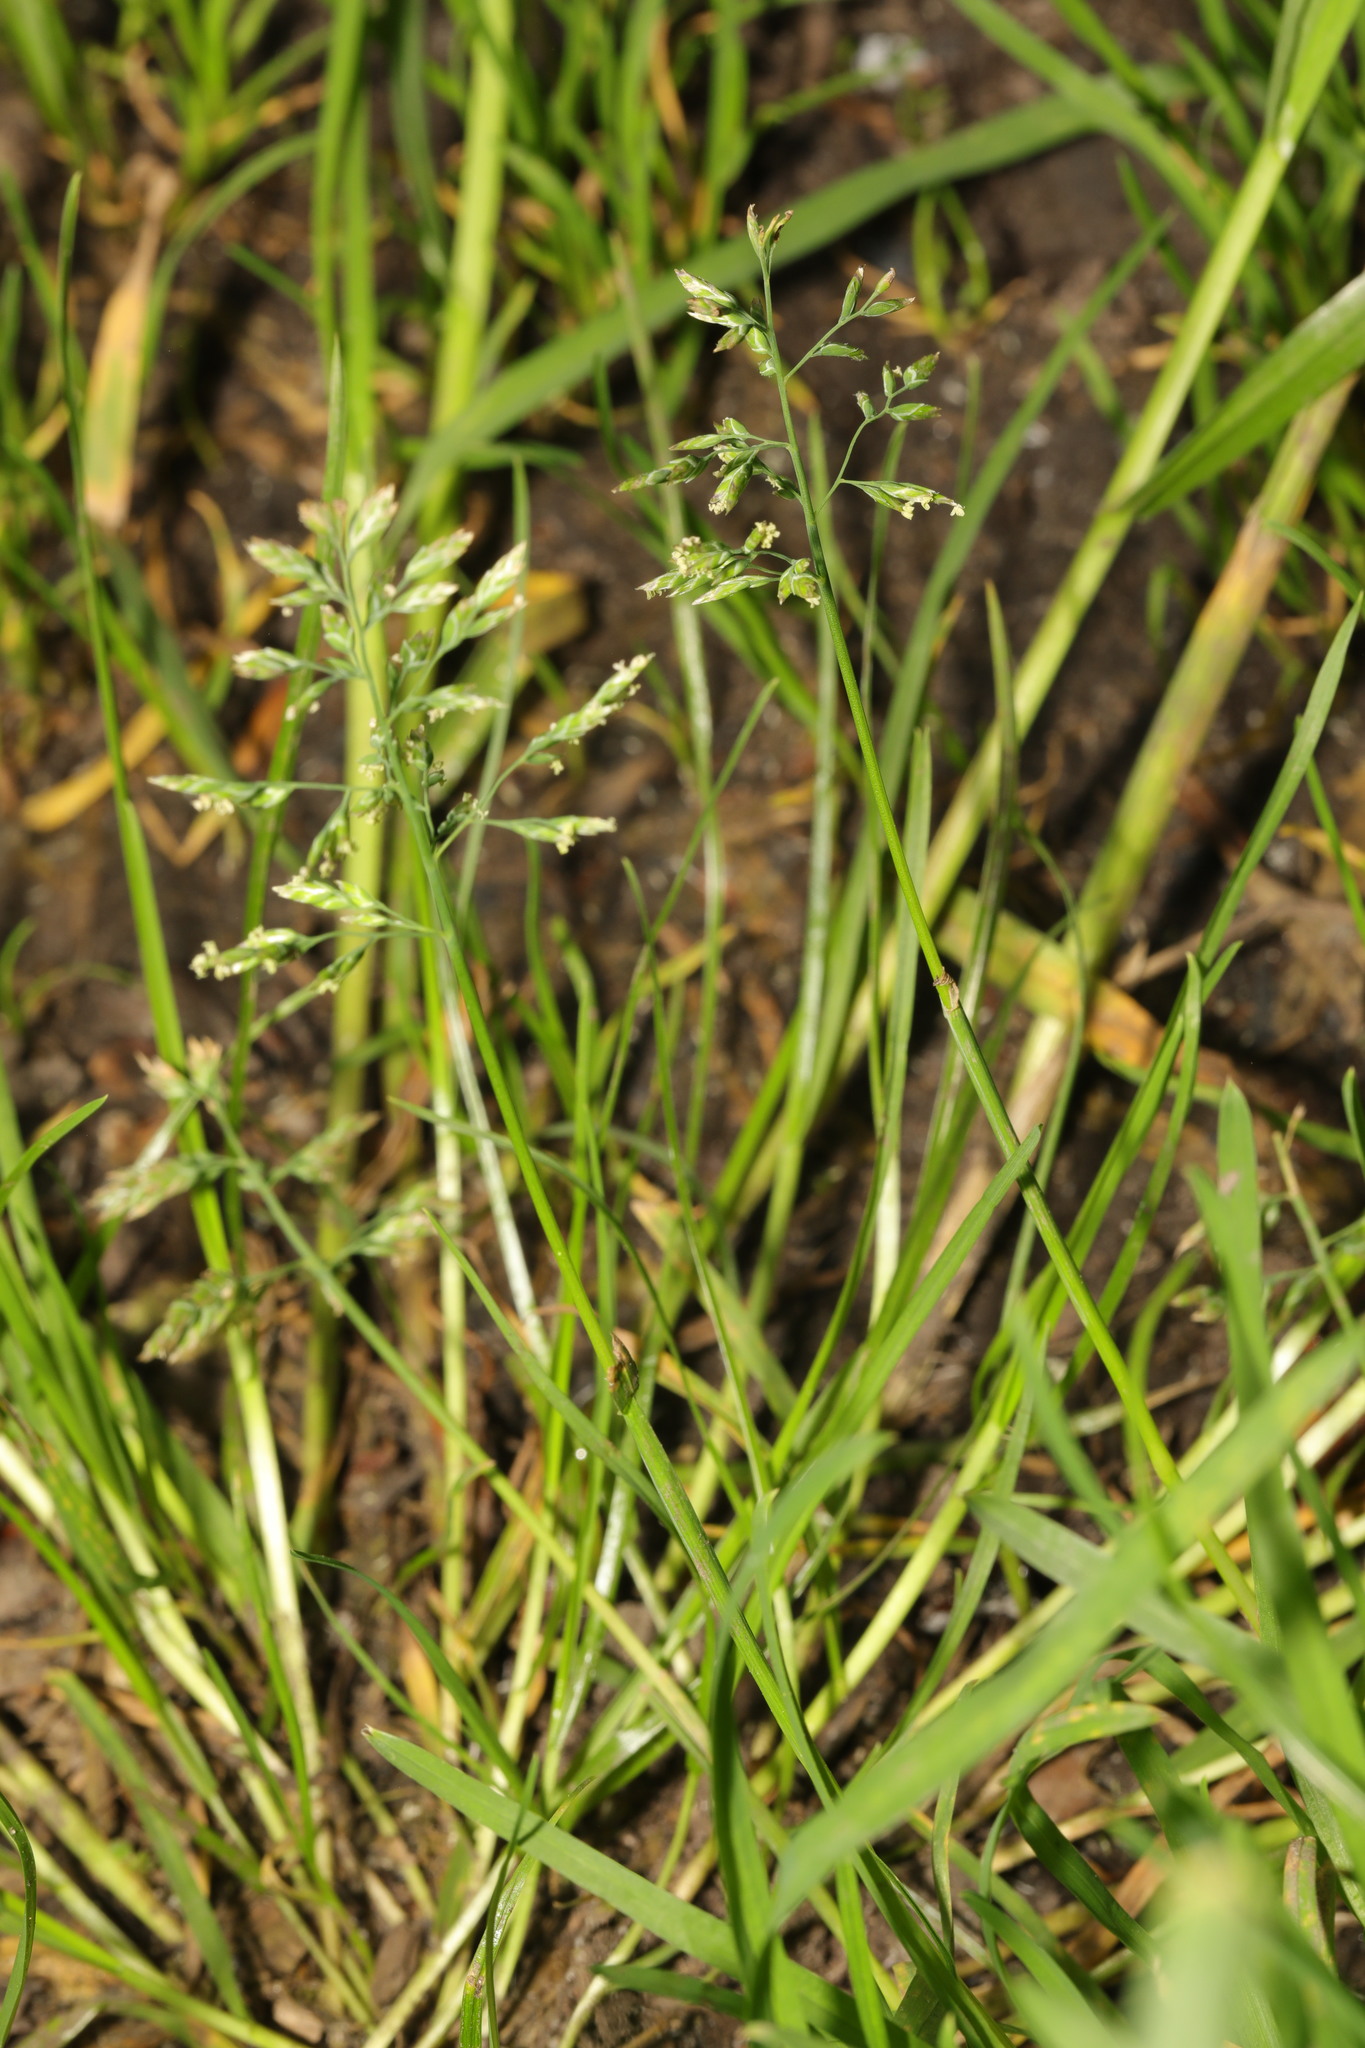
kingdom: Plantae
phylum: Tracheophyta
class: Liliopsida
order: Poales
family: Poaceae
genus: Poa
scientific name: Poa annua
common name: Annual bluegrass
